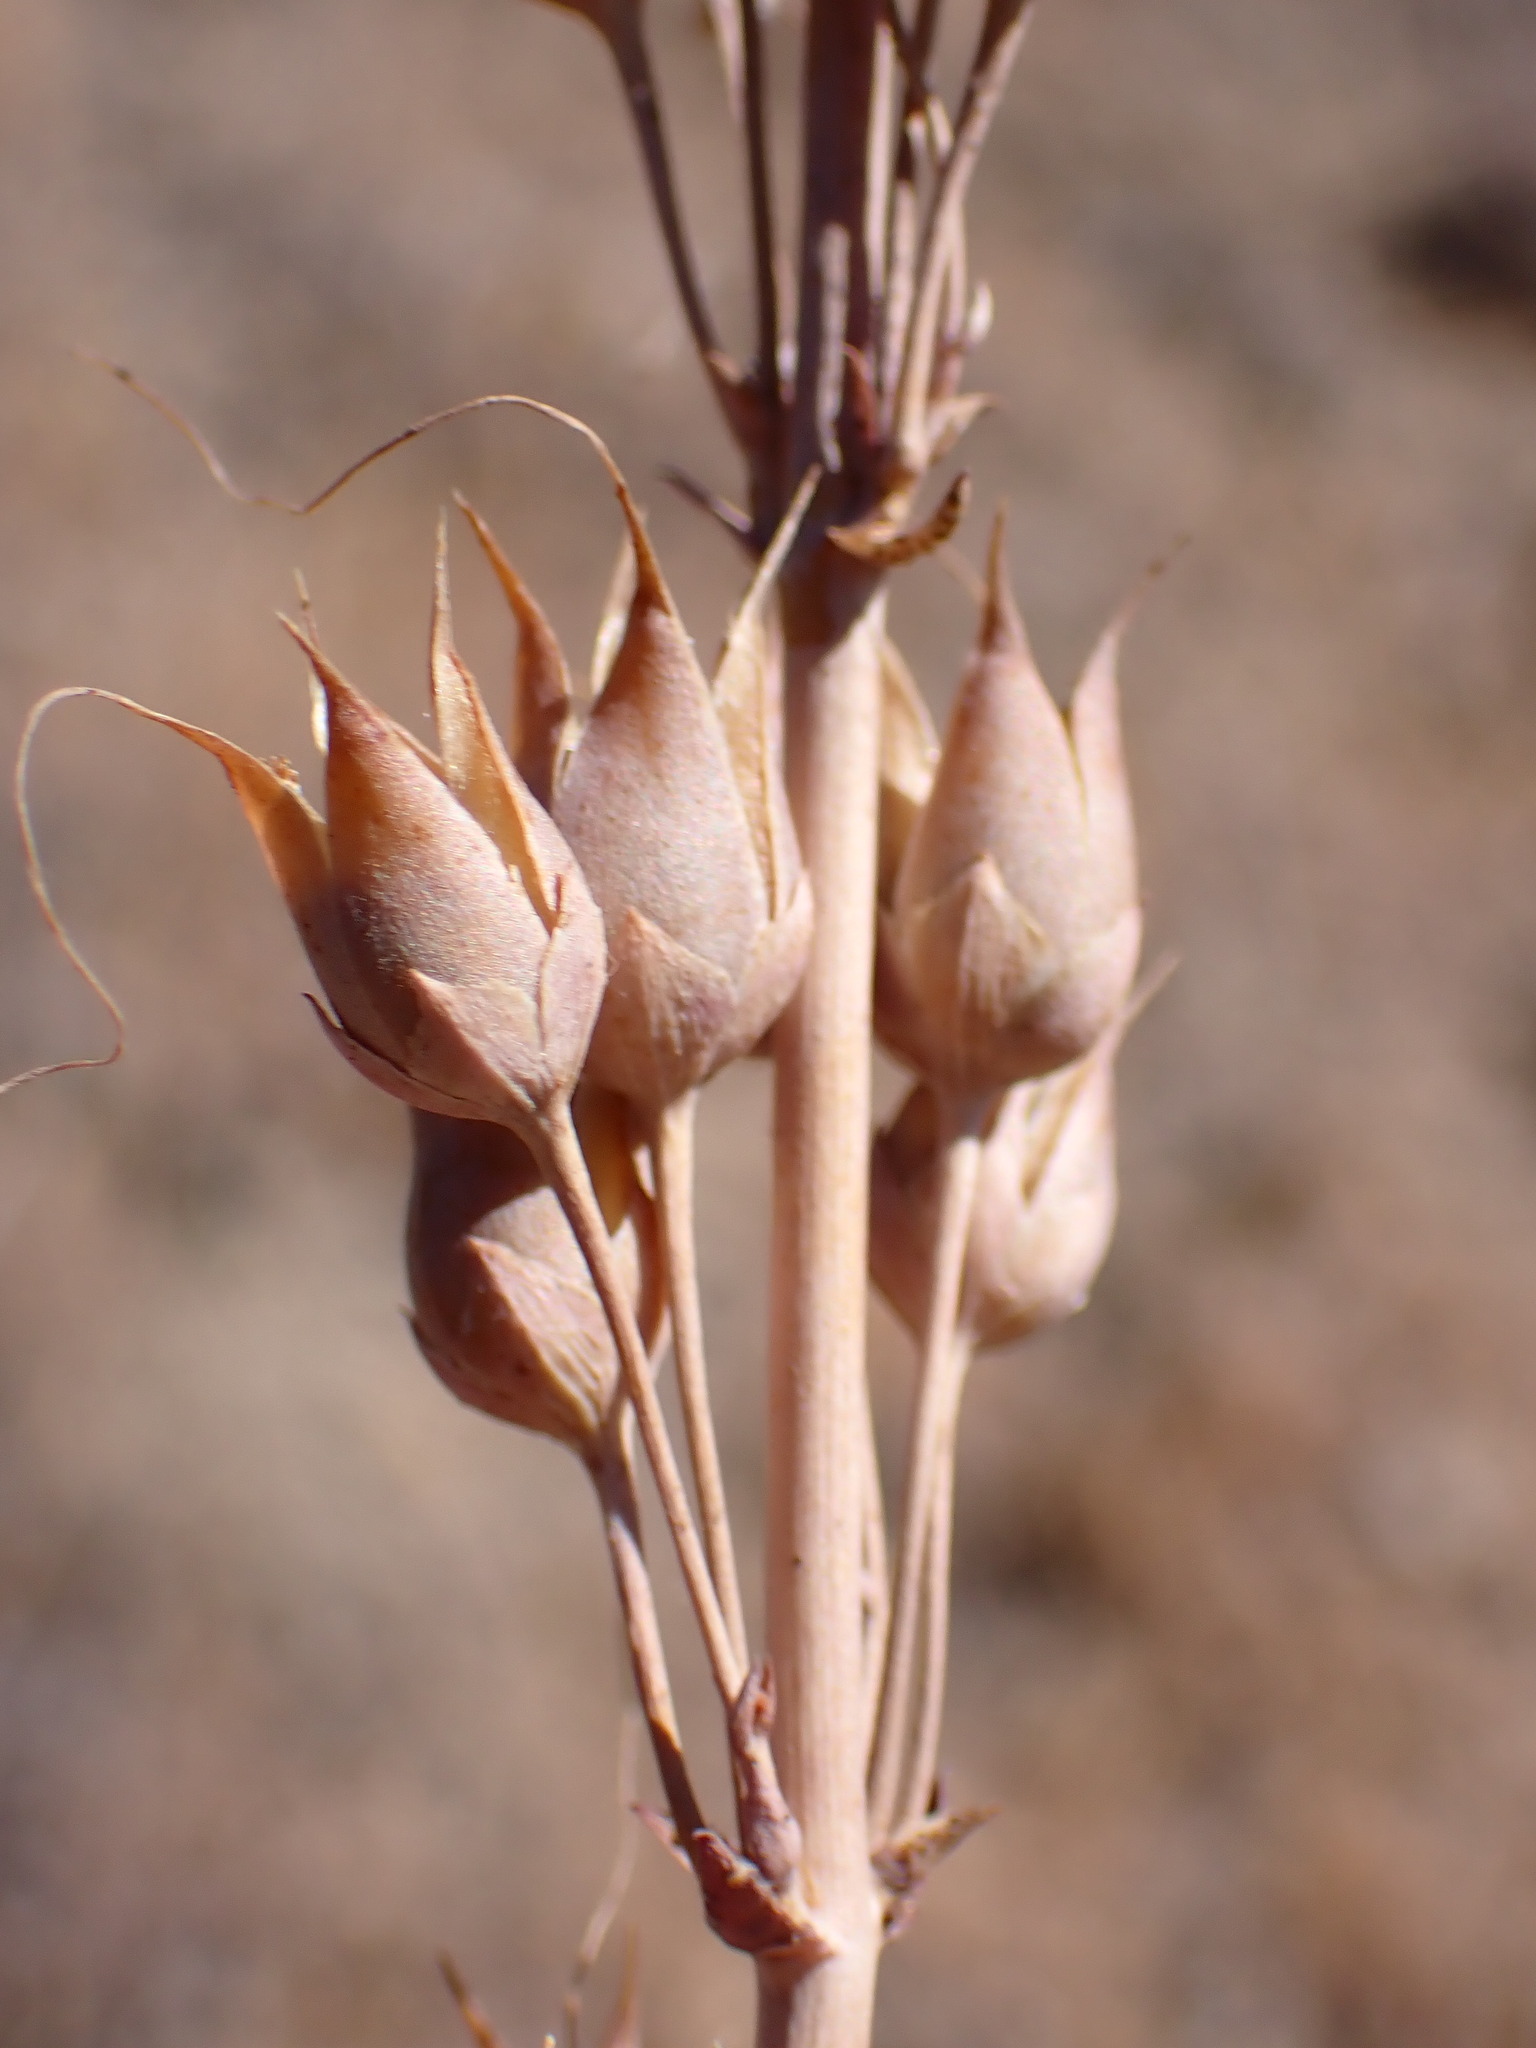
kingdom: Plantae
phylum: Tracheophyta
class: Magnoliopsida
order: Lamiales
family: Plantaginaceae
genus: Penstemon
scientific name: Penstemon centranthifolius
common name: Scarlet bugler
